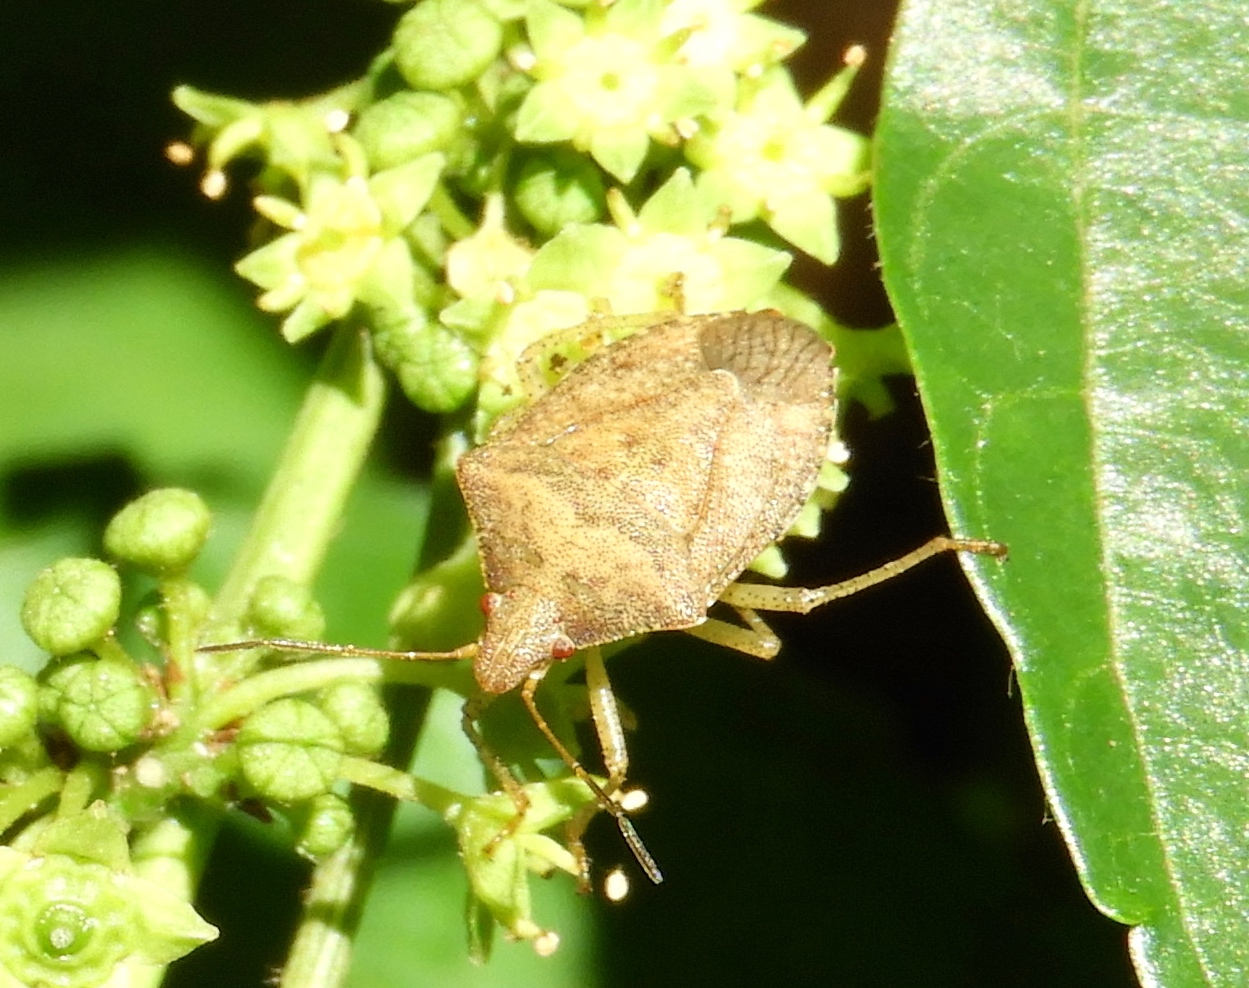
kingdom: Animalia
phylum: Arthropoda
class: Insecta
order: Hemiptera
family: Pentatomidae
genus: Euschistus
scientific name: Euschistus
